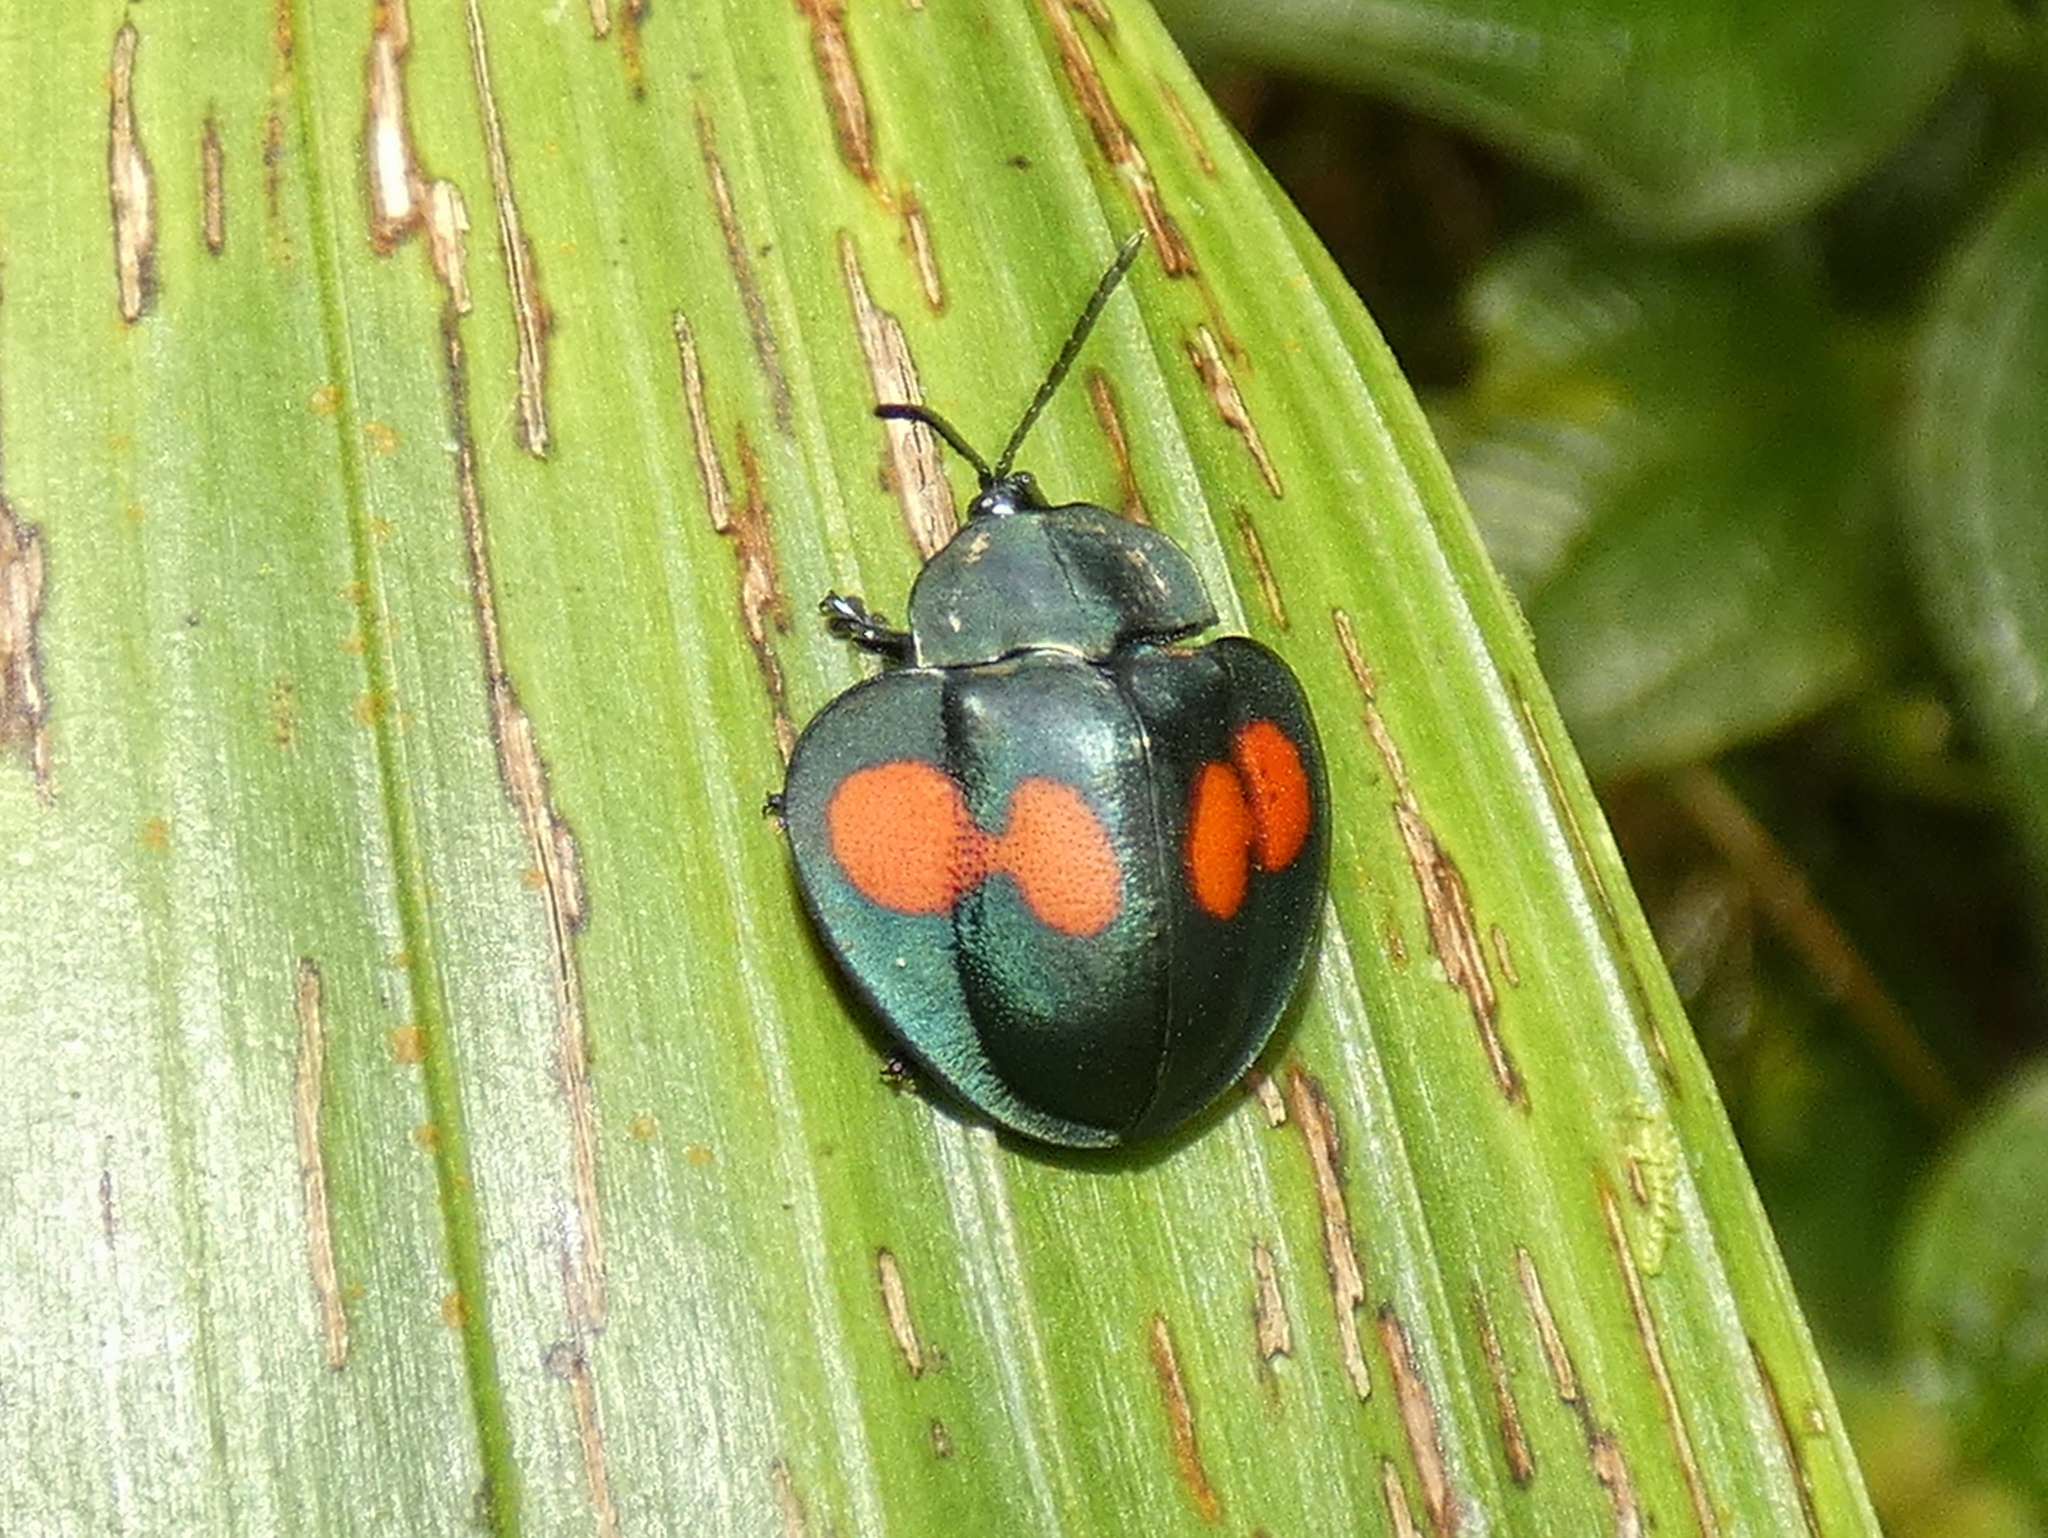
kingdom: Animalia
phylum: Arthropoda
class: Insecta
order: Coleoptera
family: Chrysomelidae
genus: Stolas
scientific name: Stolas lebasii
